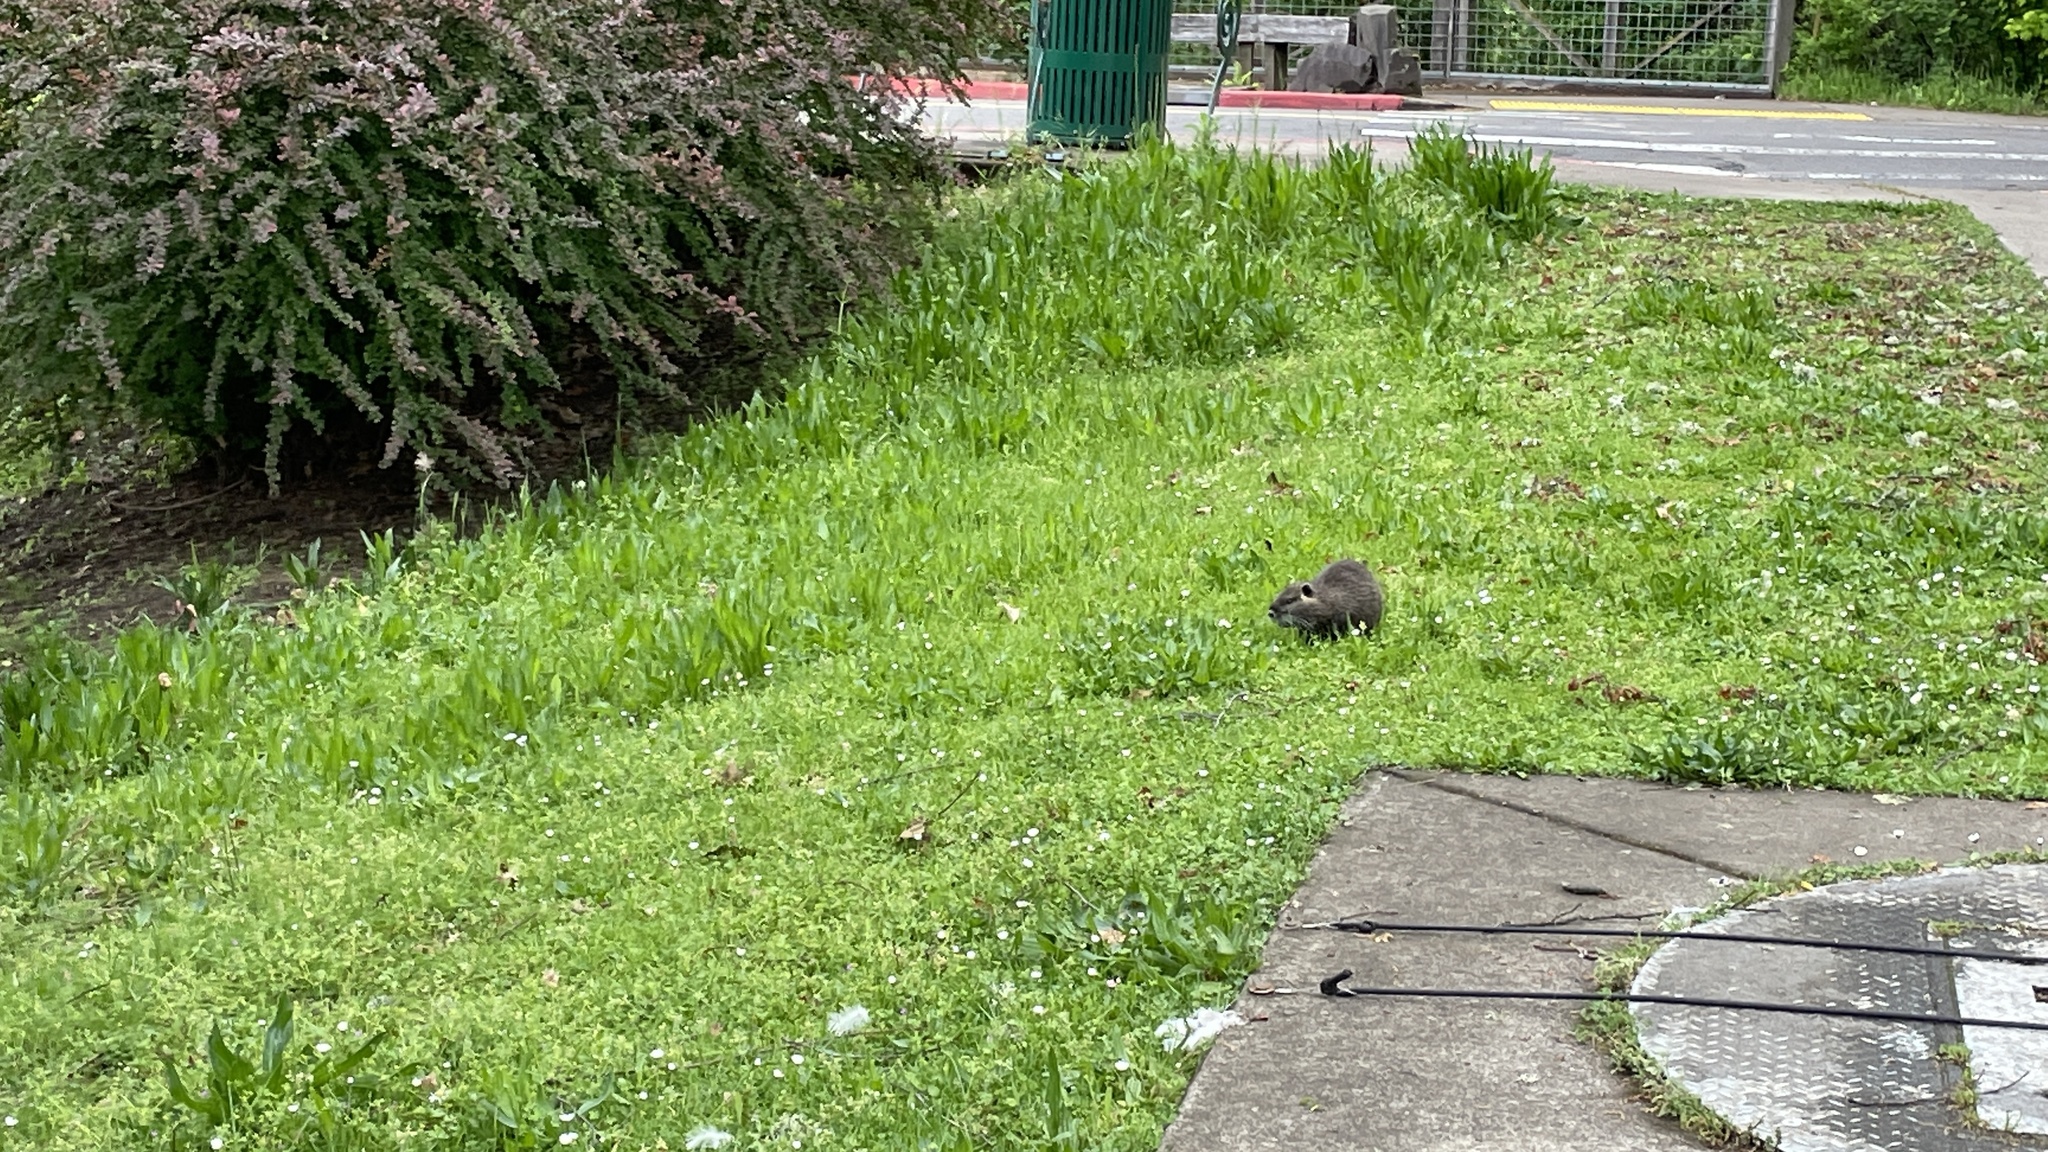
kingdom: Animalia
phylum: Chordata
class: Mammalia
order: Rodentia
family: Myocastoridae
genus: Myocastor
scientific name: Myocastor coypus
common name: Coypu
